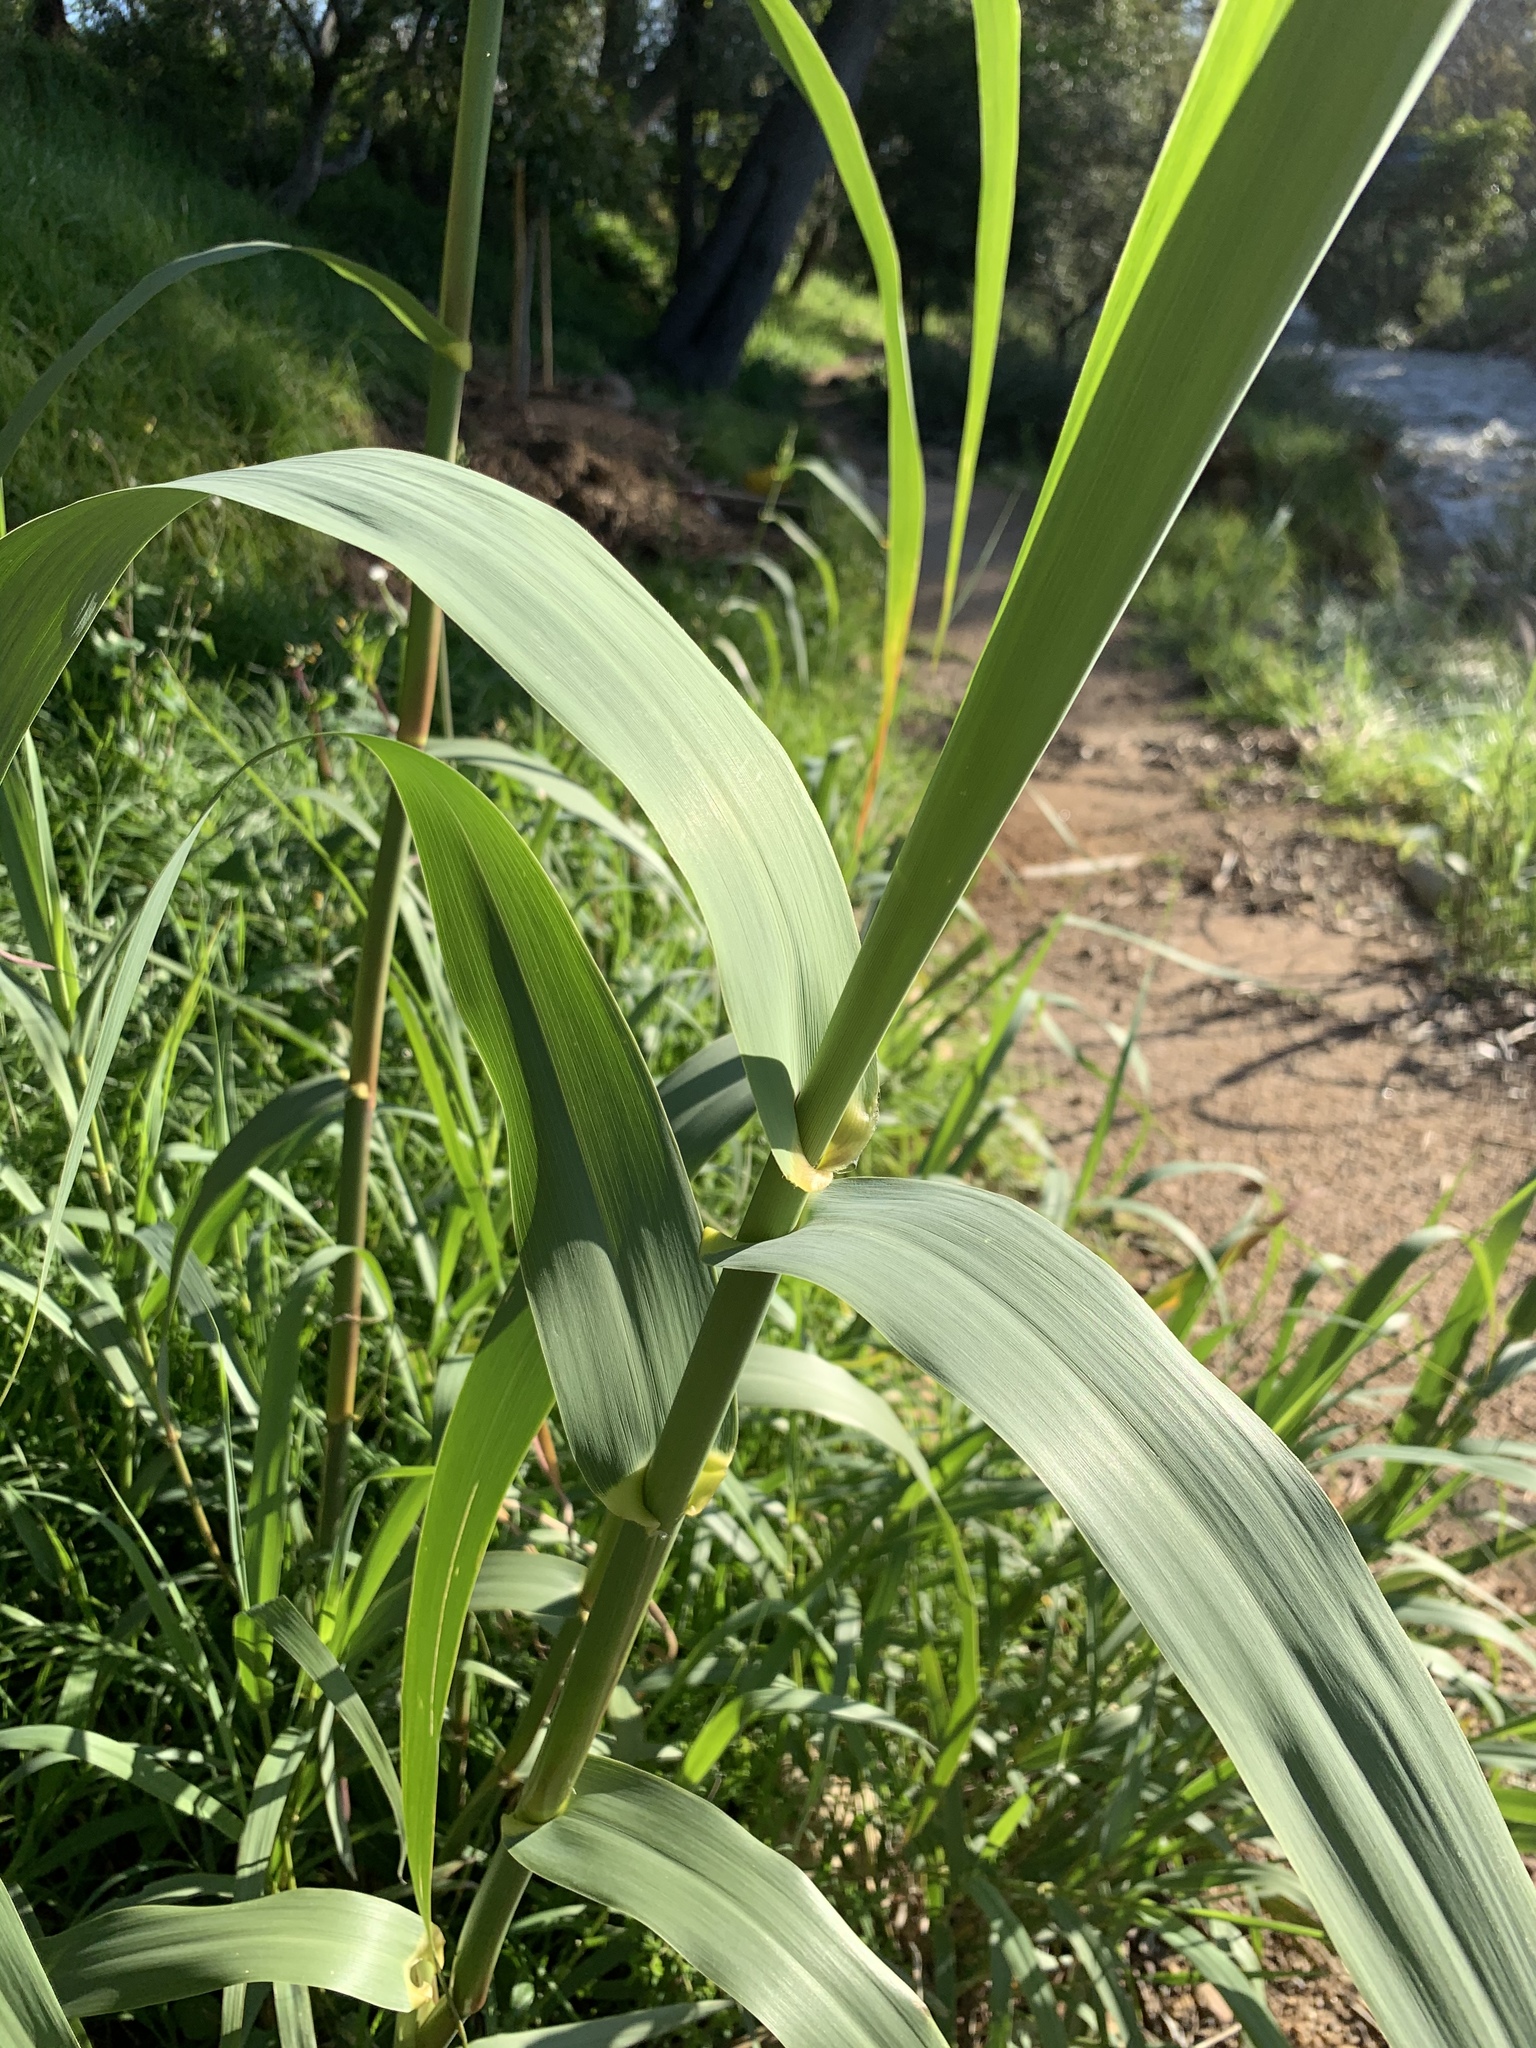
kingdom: Plantae
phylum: Tracheophyta
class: Liliopsida
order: Poales
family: Poaceae
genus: Arundo
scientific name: Arundo donax
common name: Giant reed
